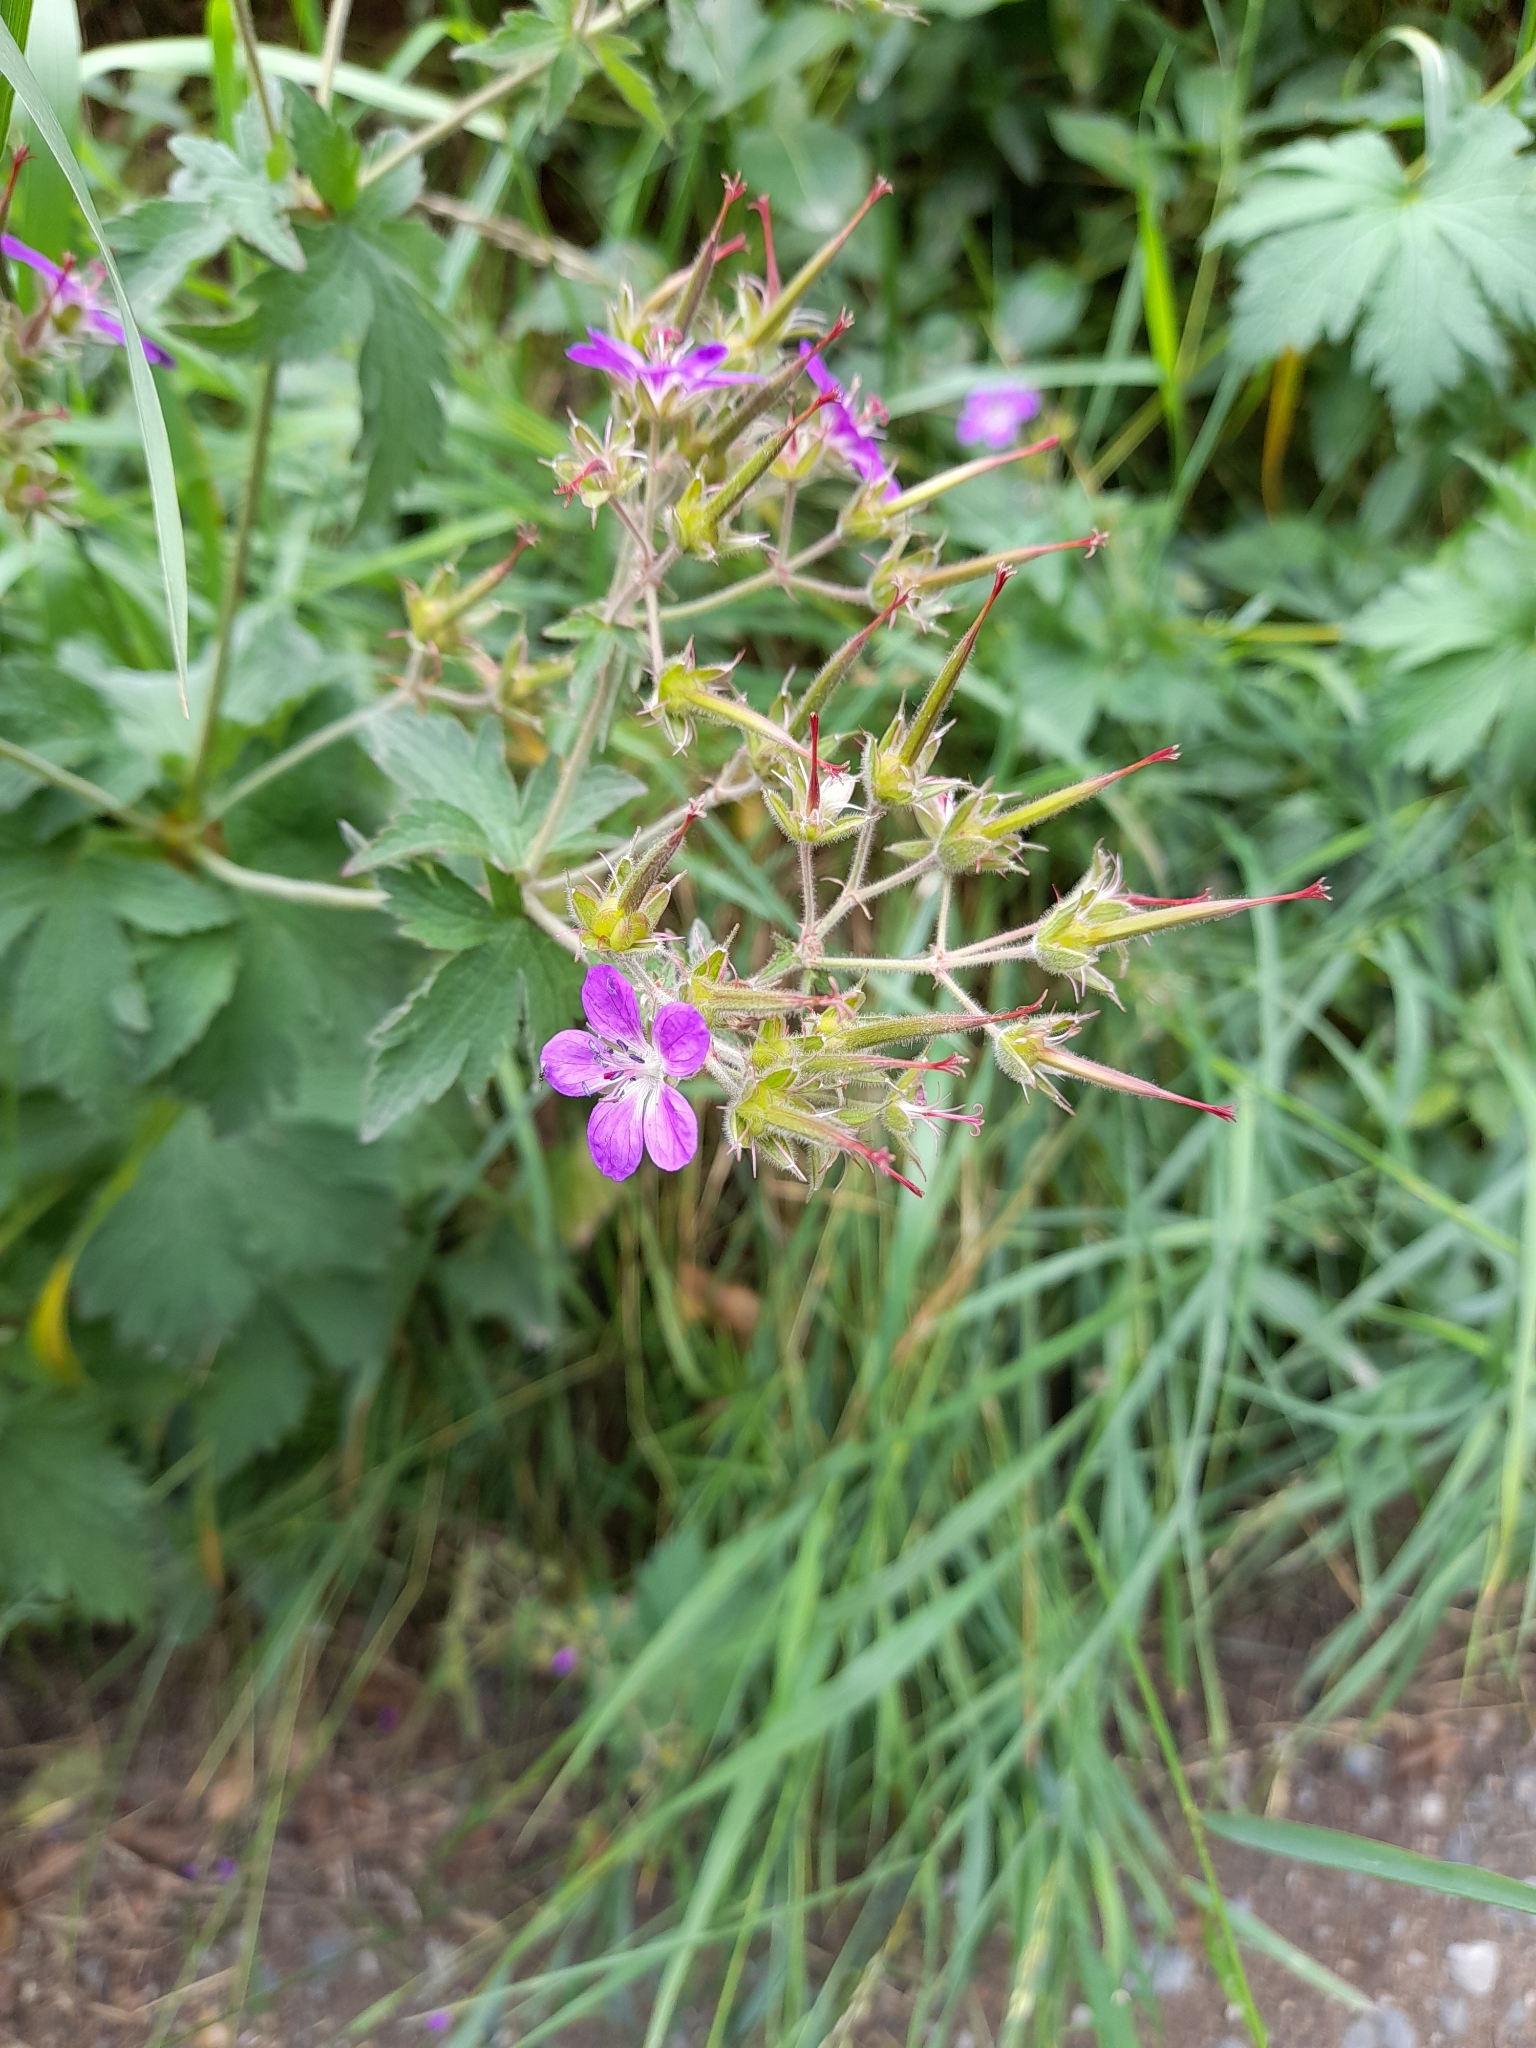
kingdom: Plantae
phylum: Tracheophyta
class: Magnoliopsida
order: Geraniales
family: Geraniaceae
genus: Geranium
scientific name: Geranium sylvaticum
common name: Wood crane's-bill
